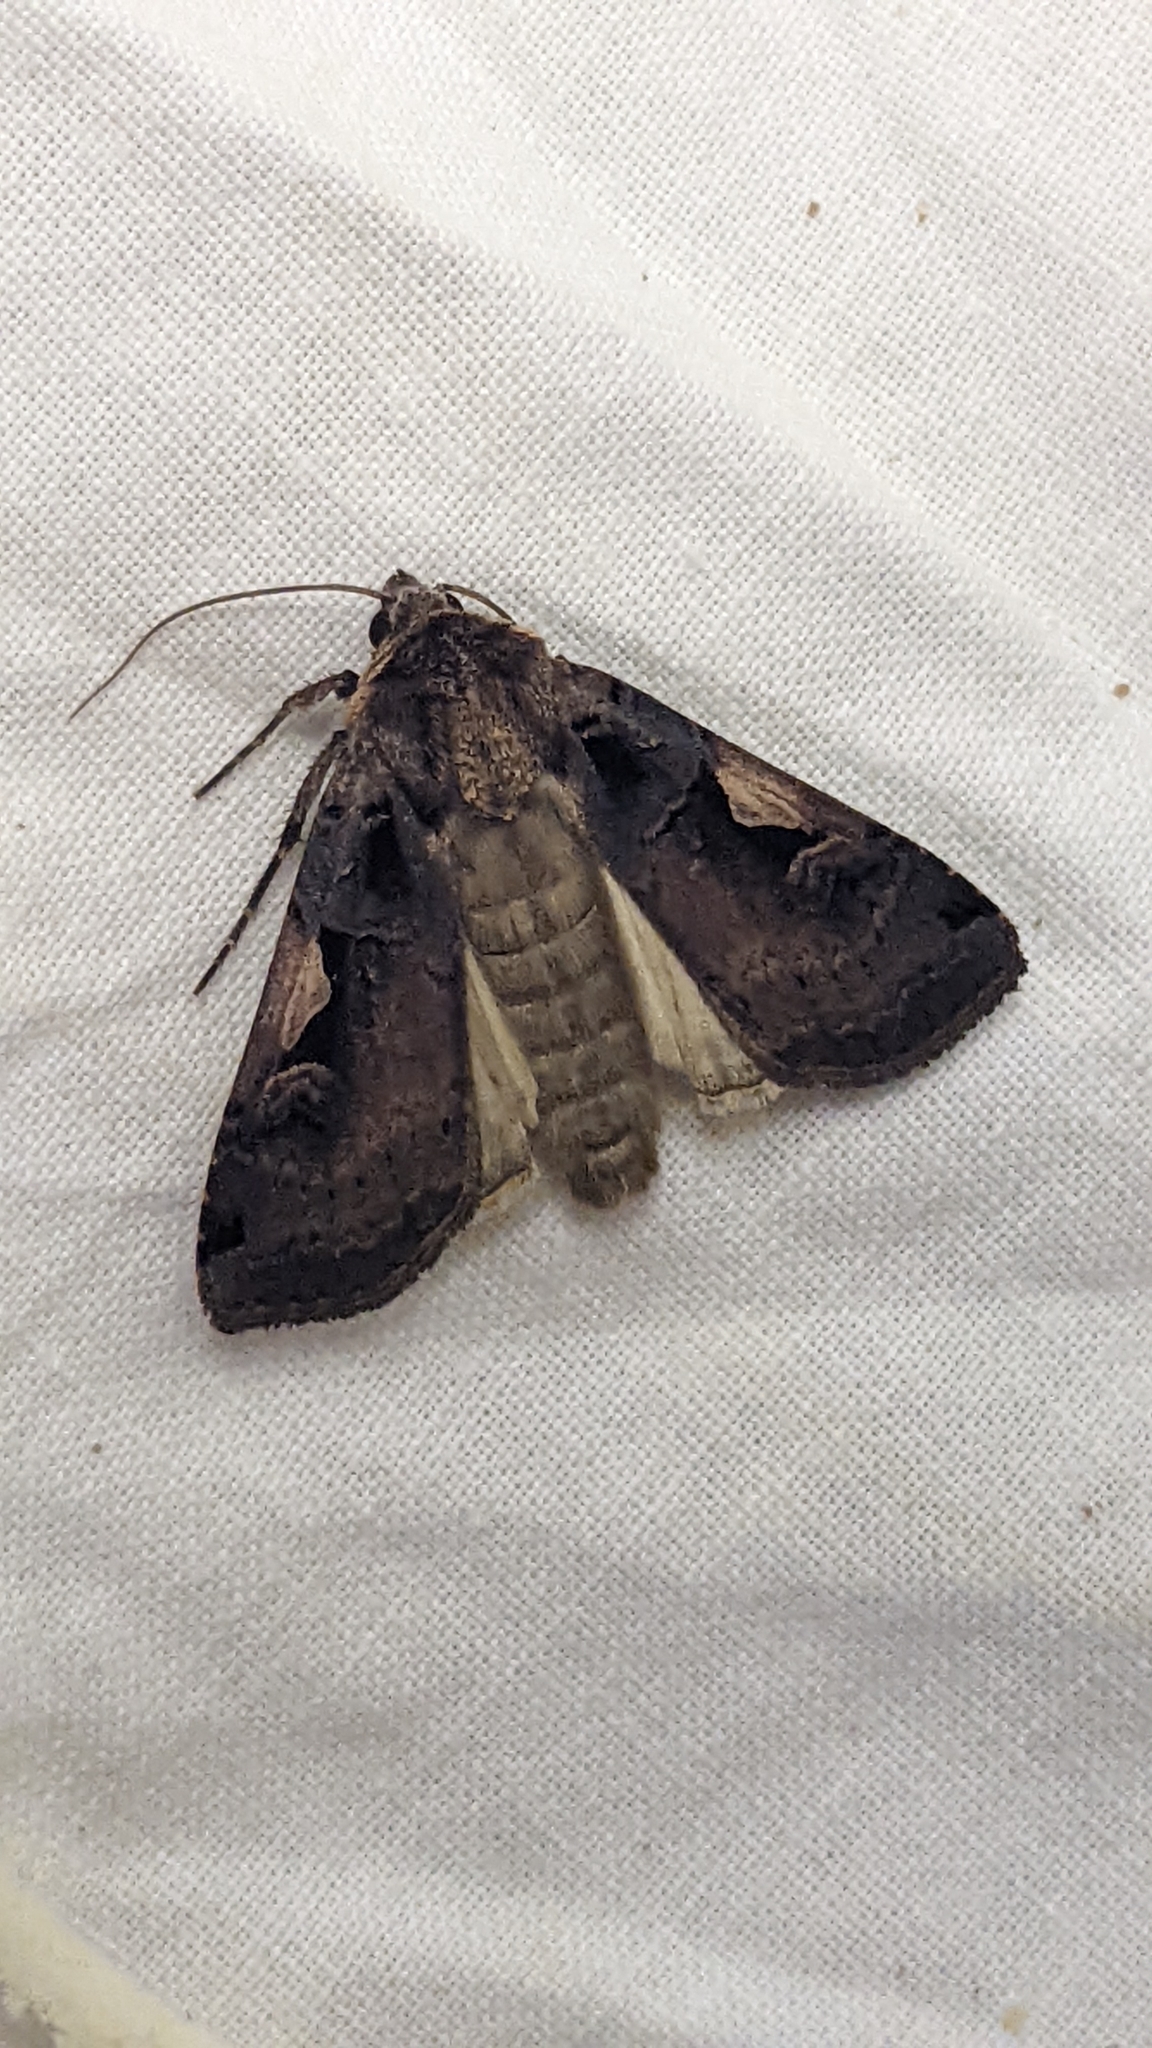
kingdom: Animalia
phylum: Arthropoda
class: Insecta
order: Lepidoptera
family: Noctuidae
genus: Xestia
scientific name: Xestia c-nigrum
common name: Setaceous hebrew character
